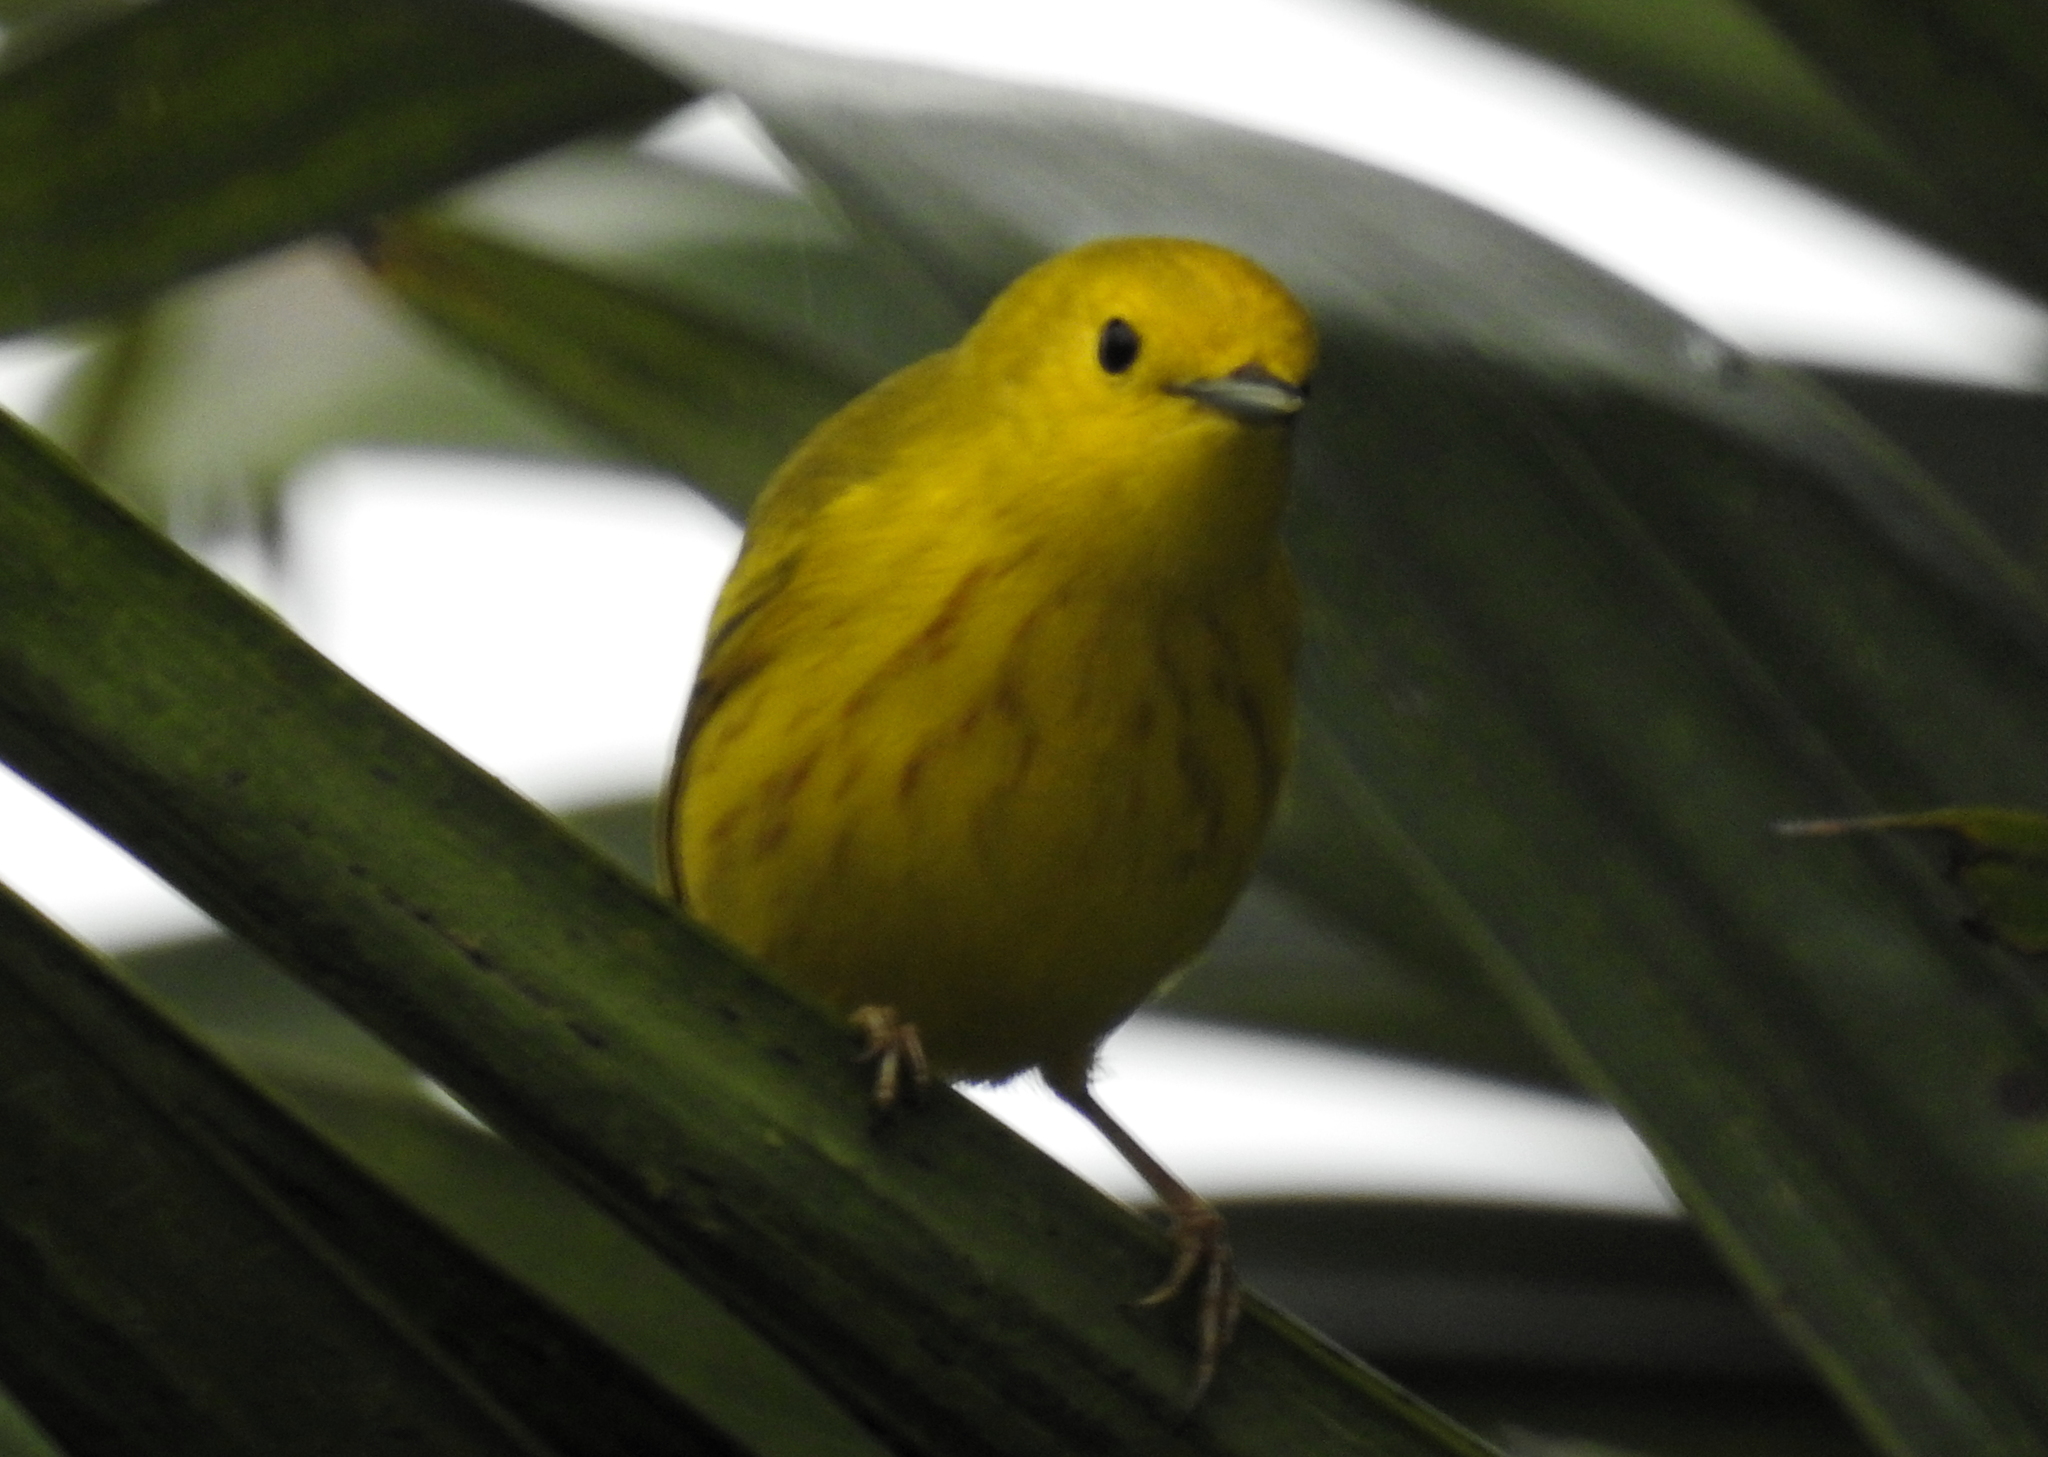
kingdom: Animalia
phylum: Chordata
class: Aves
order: Passeriformes
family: Parulidae
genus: Setophaga
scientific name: Setophaga petechia
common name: Yellow warbler
